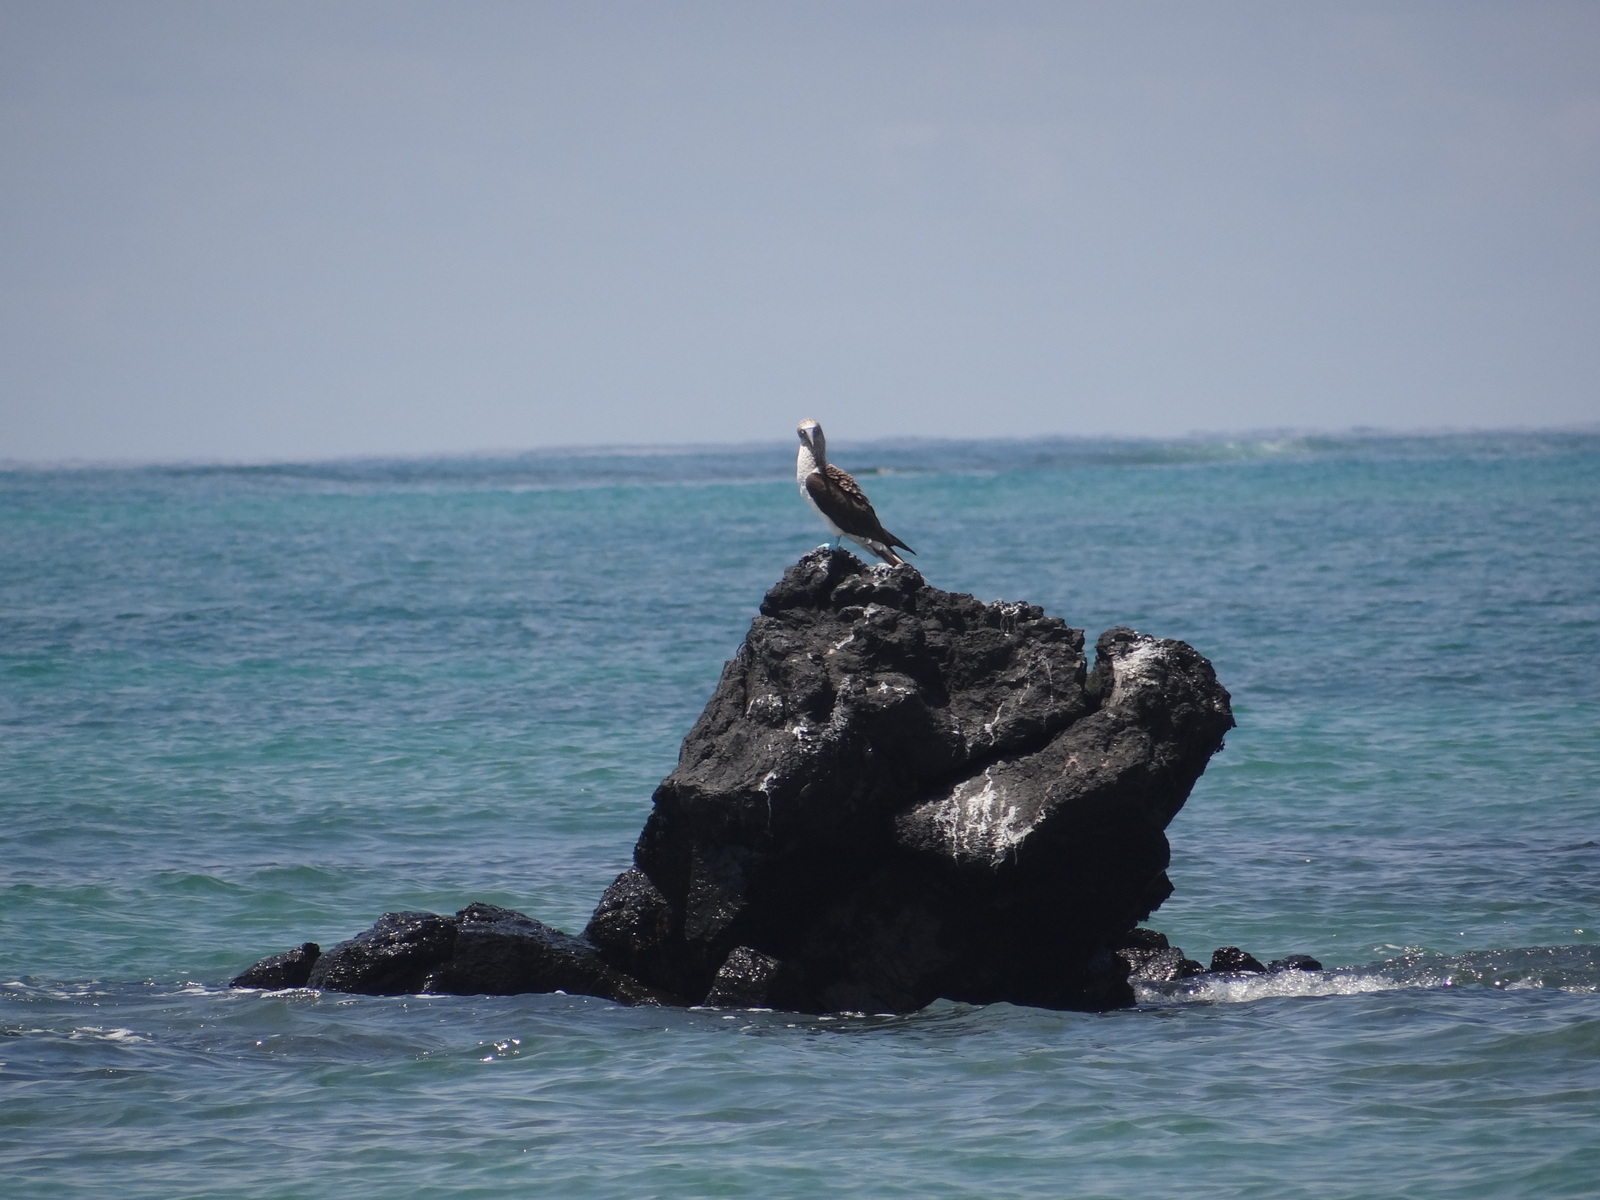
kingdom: Animalia
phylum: Chordata
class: Aves
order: Suliformes
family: Sulidae
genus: Sula
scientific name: Sula nebouxii
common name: Blue-footed booby
